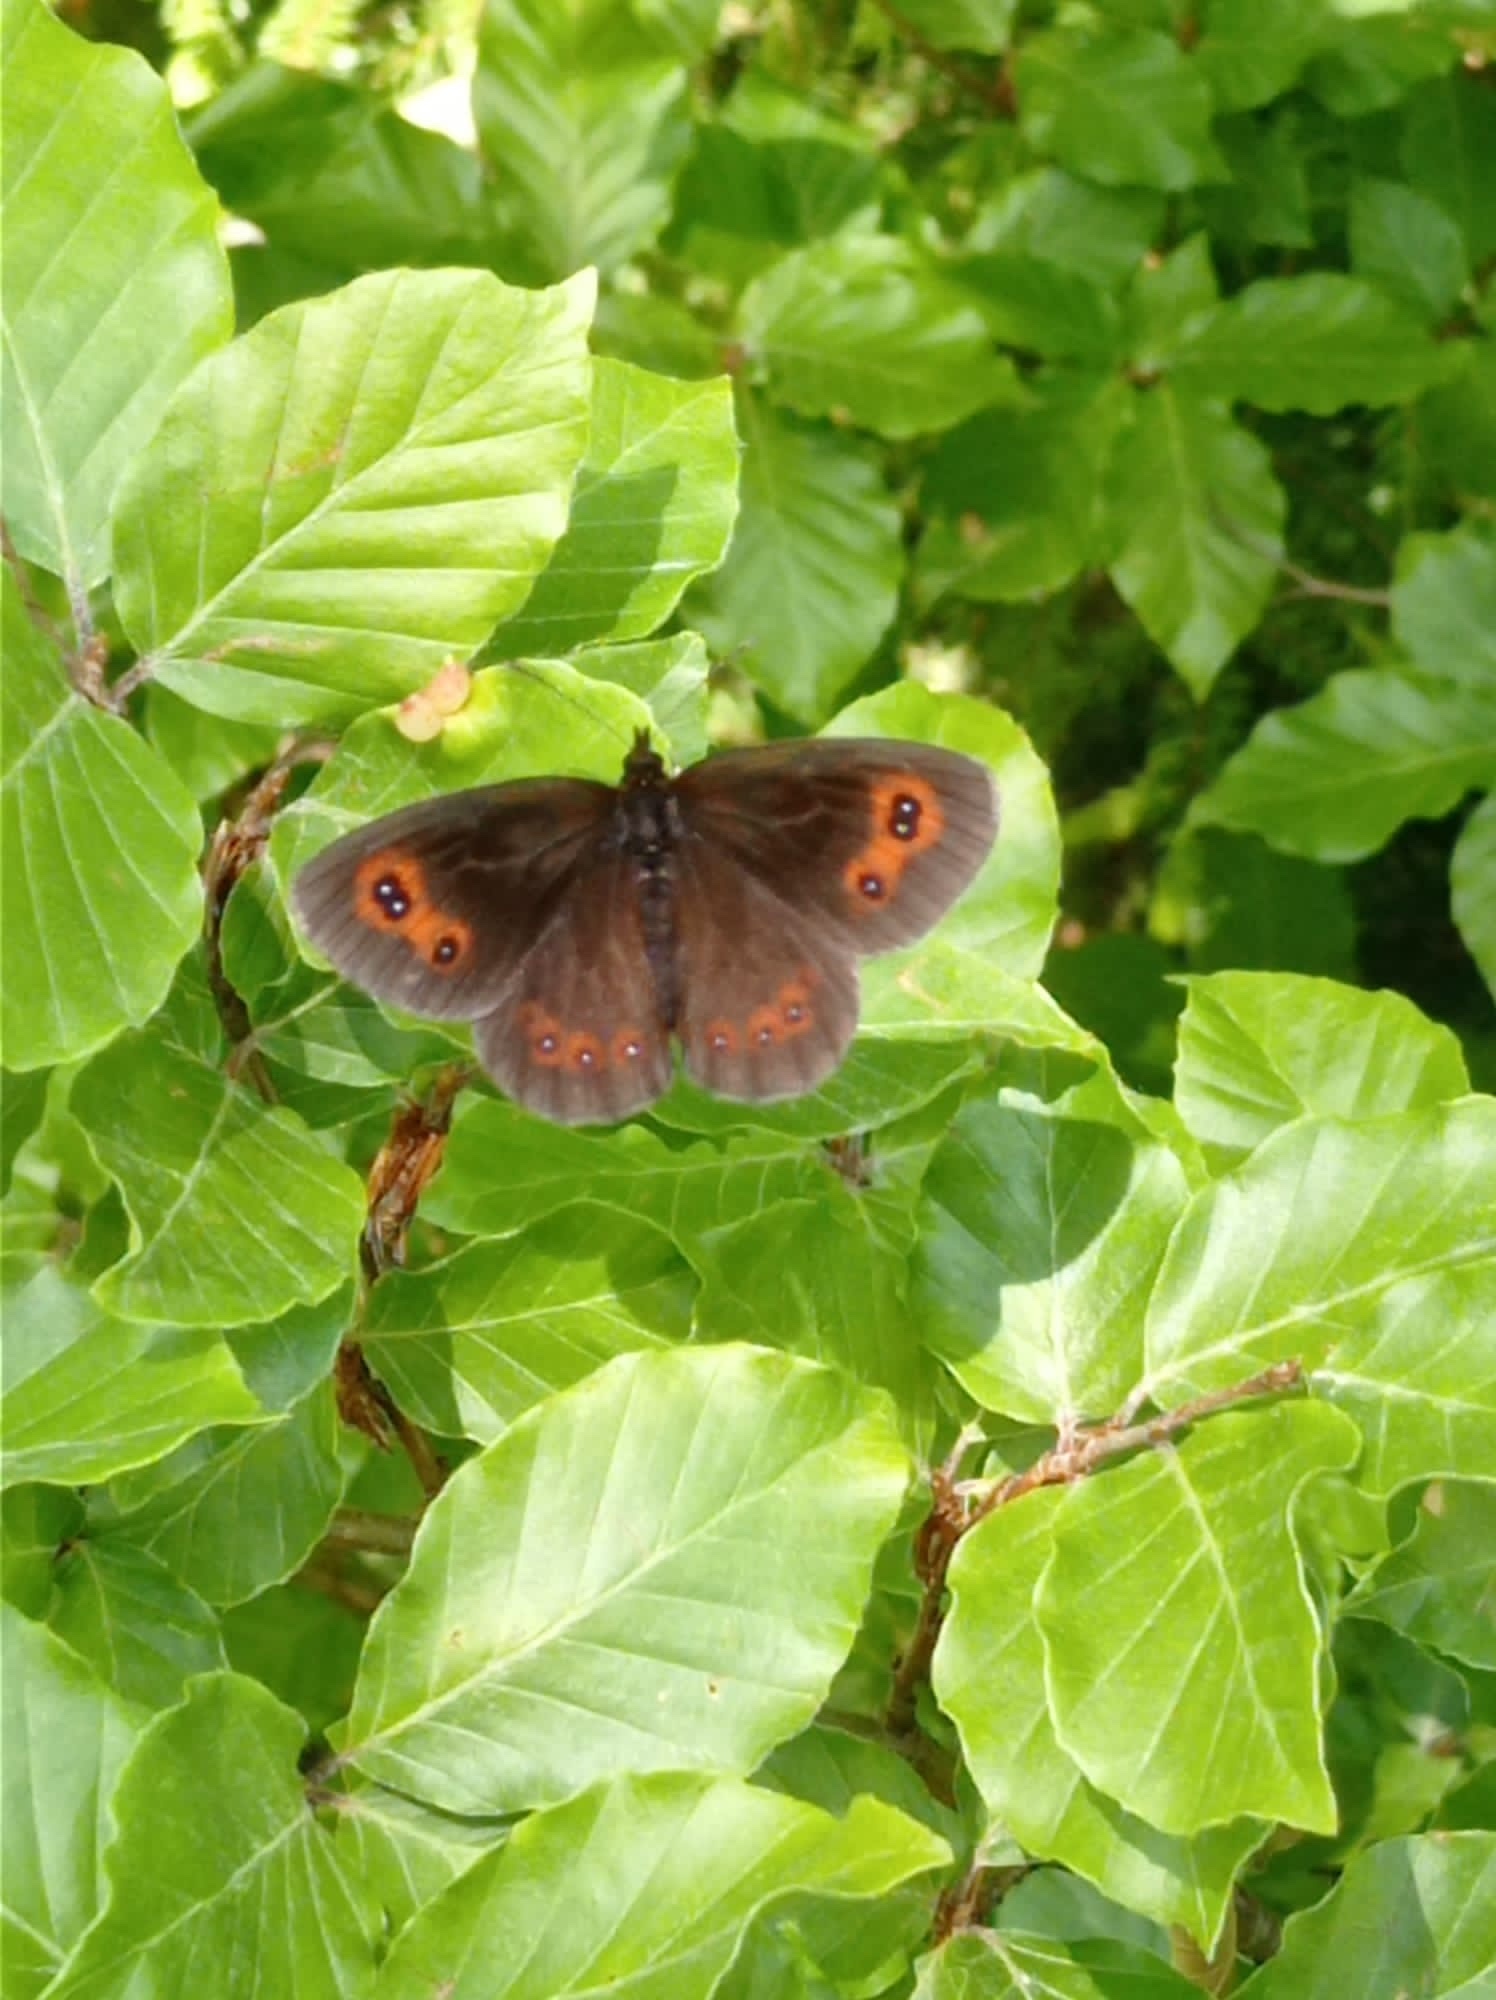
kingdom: Animalia
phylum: Arthropoda
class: Insecta
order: Lepidoptera
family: Nymphalidae
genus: Erebia
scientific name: Erebia aethiops
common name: Scotch argus
